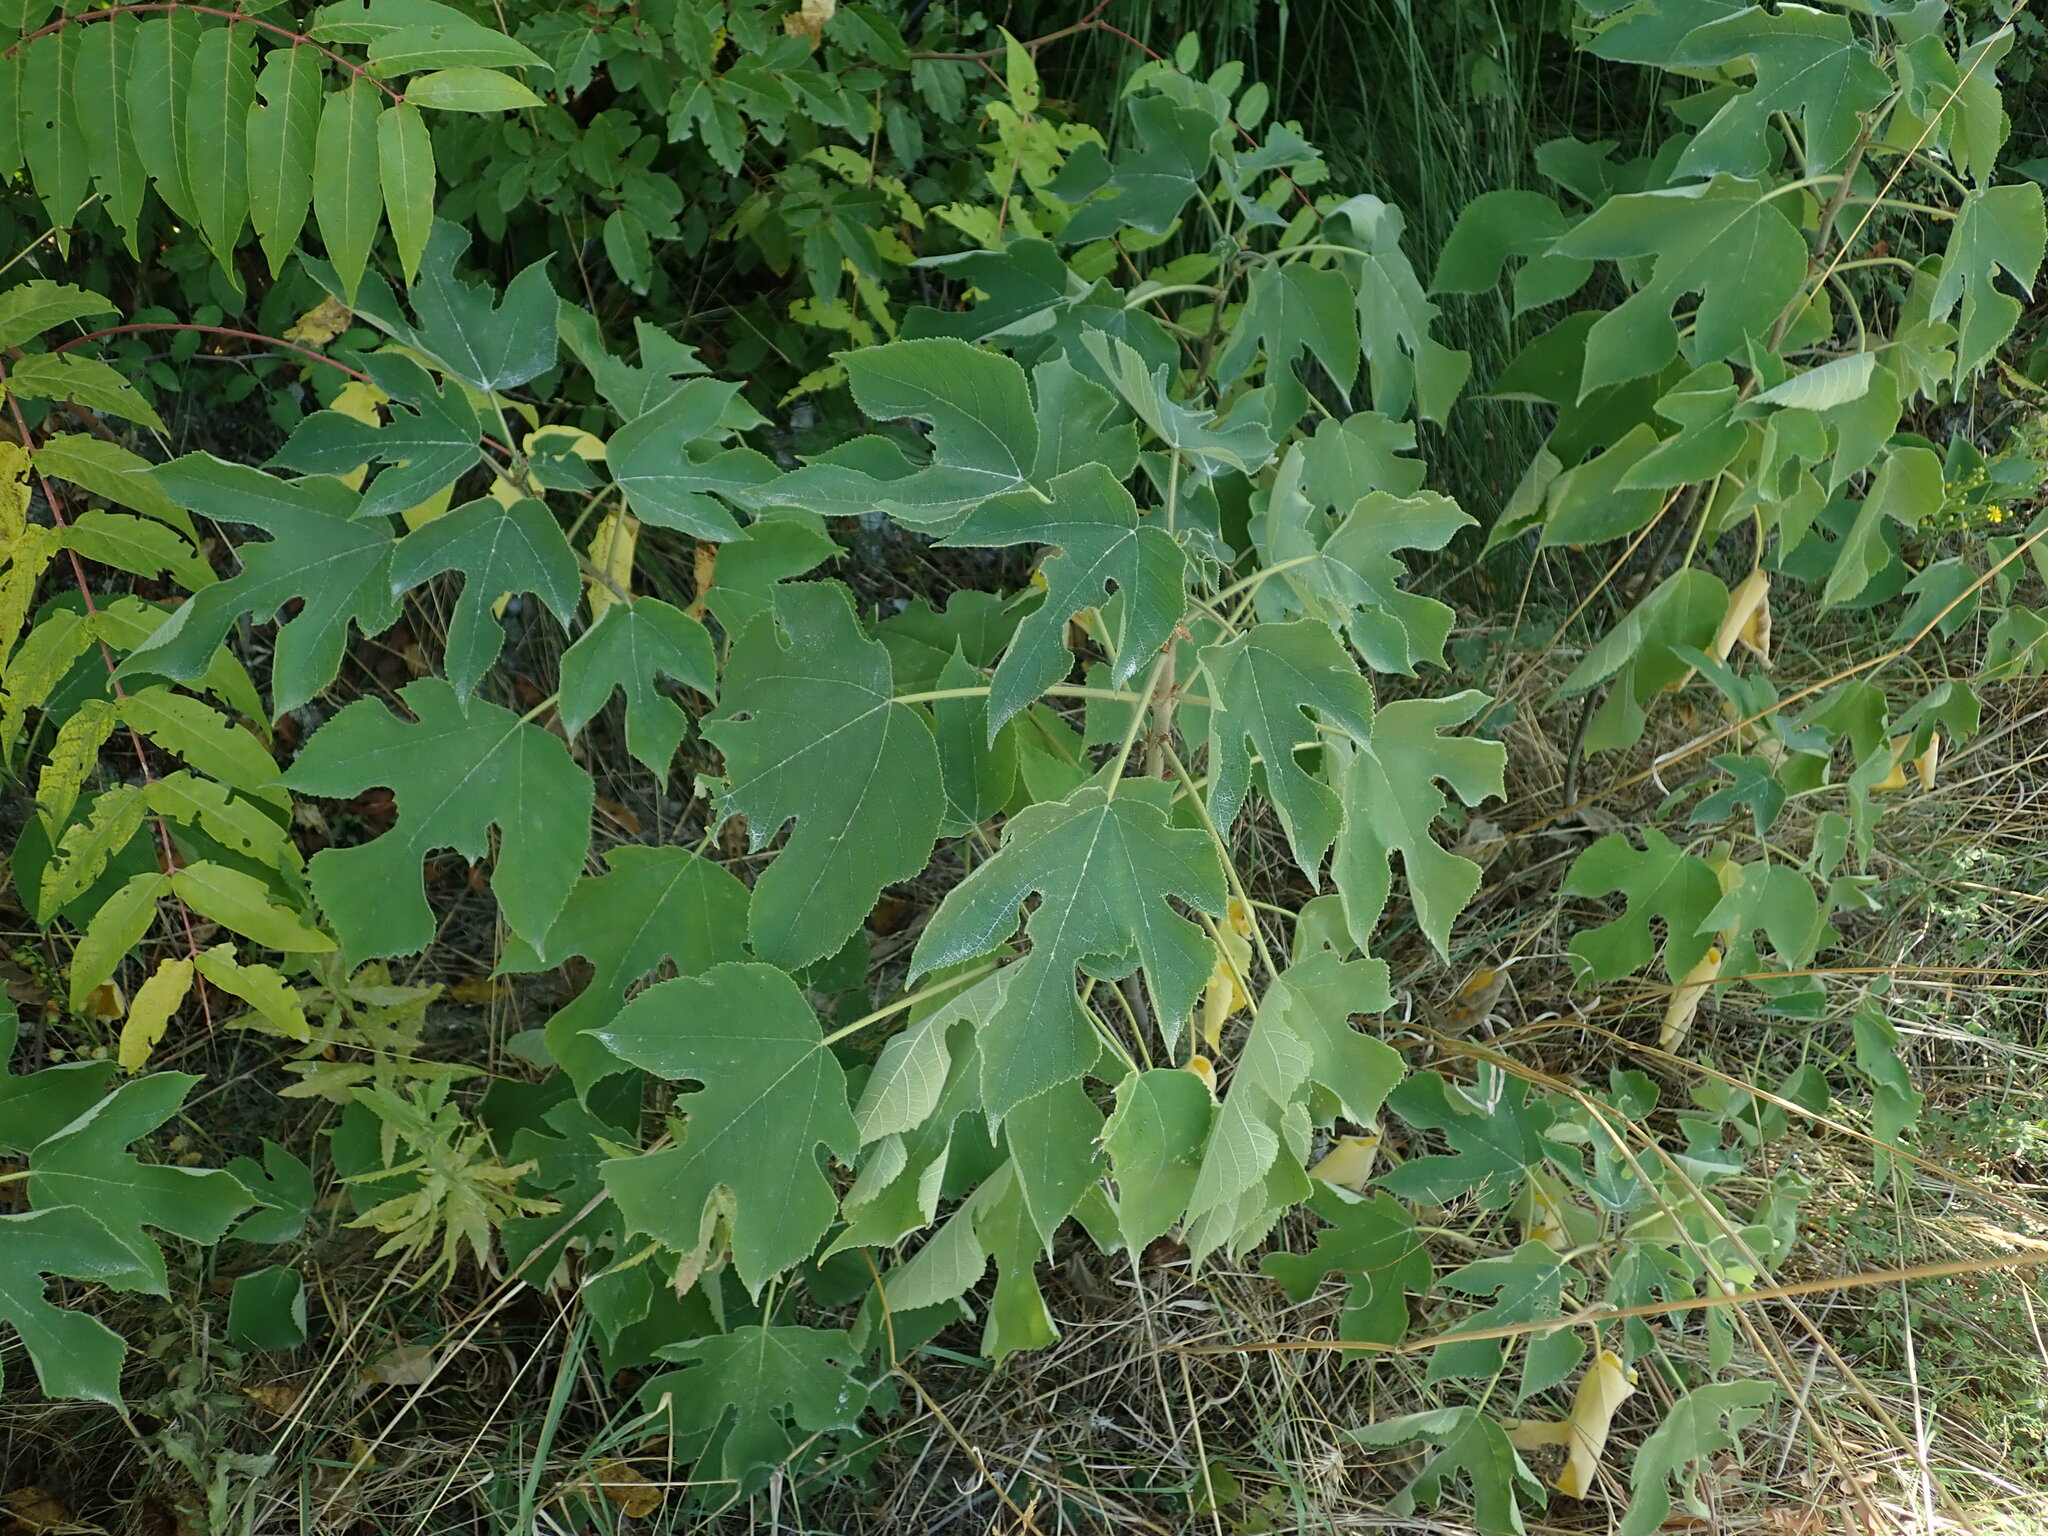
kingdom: Plantae
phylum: Tracheophyta
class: Magnoliopsida
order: Rosales
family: Moraceae
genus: Broussonetia
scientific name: Broussonetia papyrifera
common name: Paper mulberry
